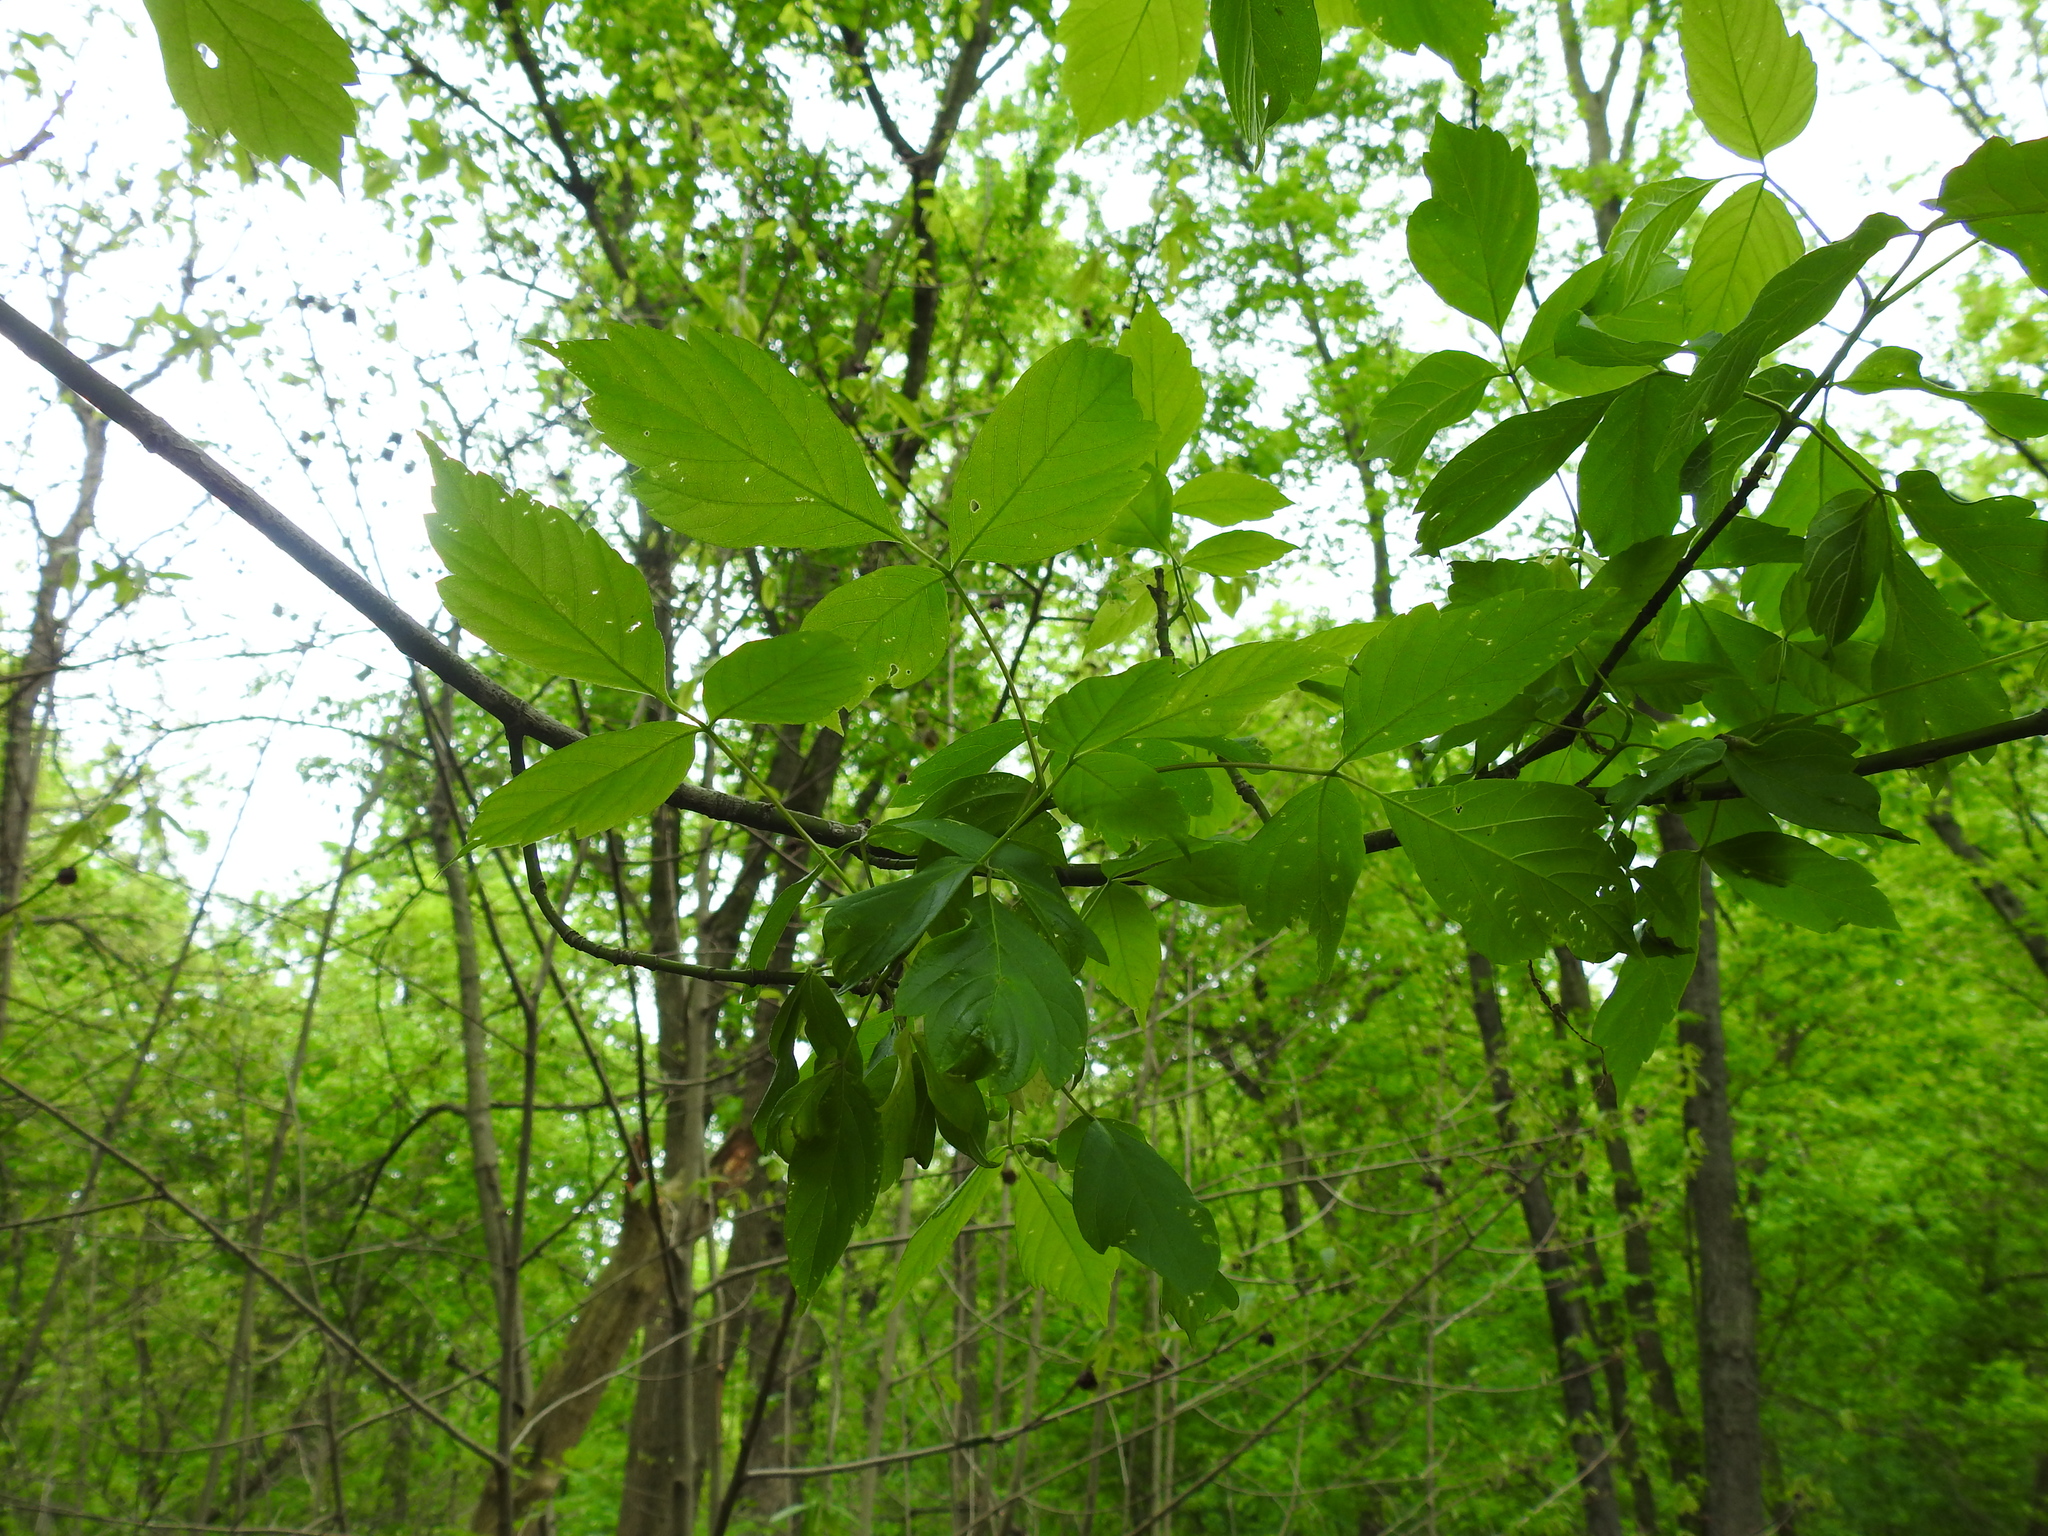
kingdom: Plantae
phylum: Tracheophyta
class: Magnoliopsida
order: Sapindales
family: Sapindaceae
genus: Acer
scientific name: Acer negundo
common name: Ashleaf maple
